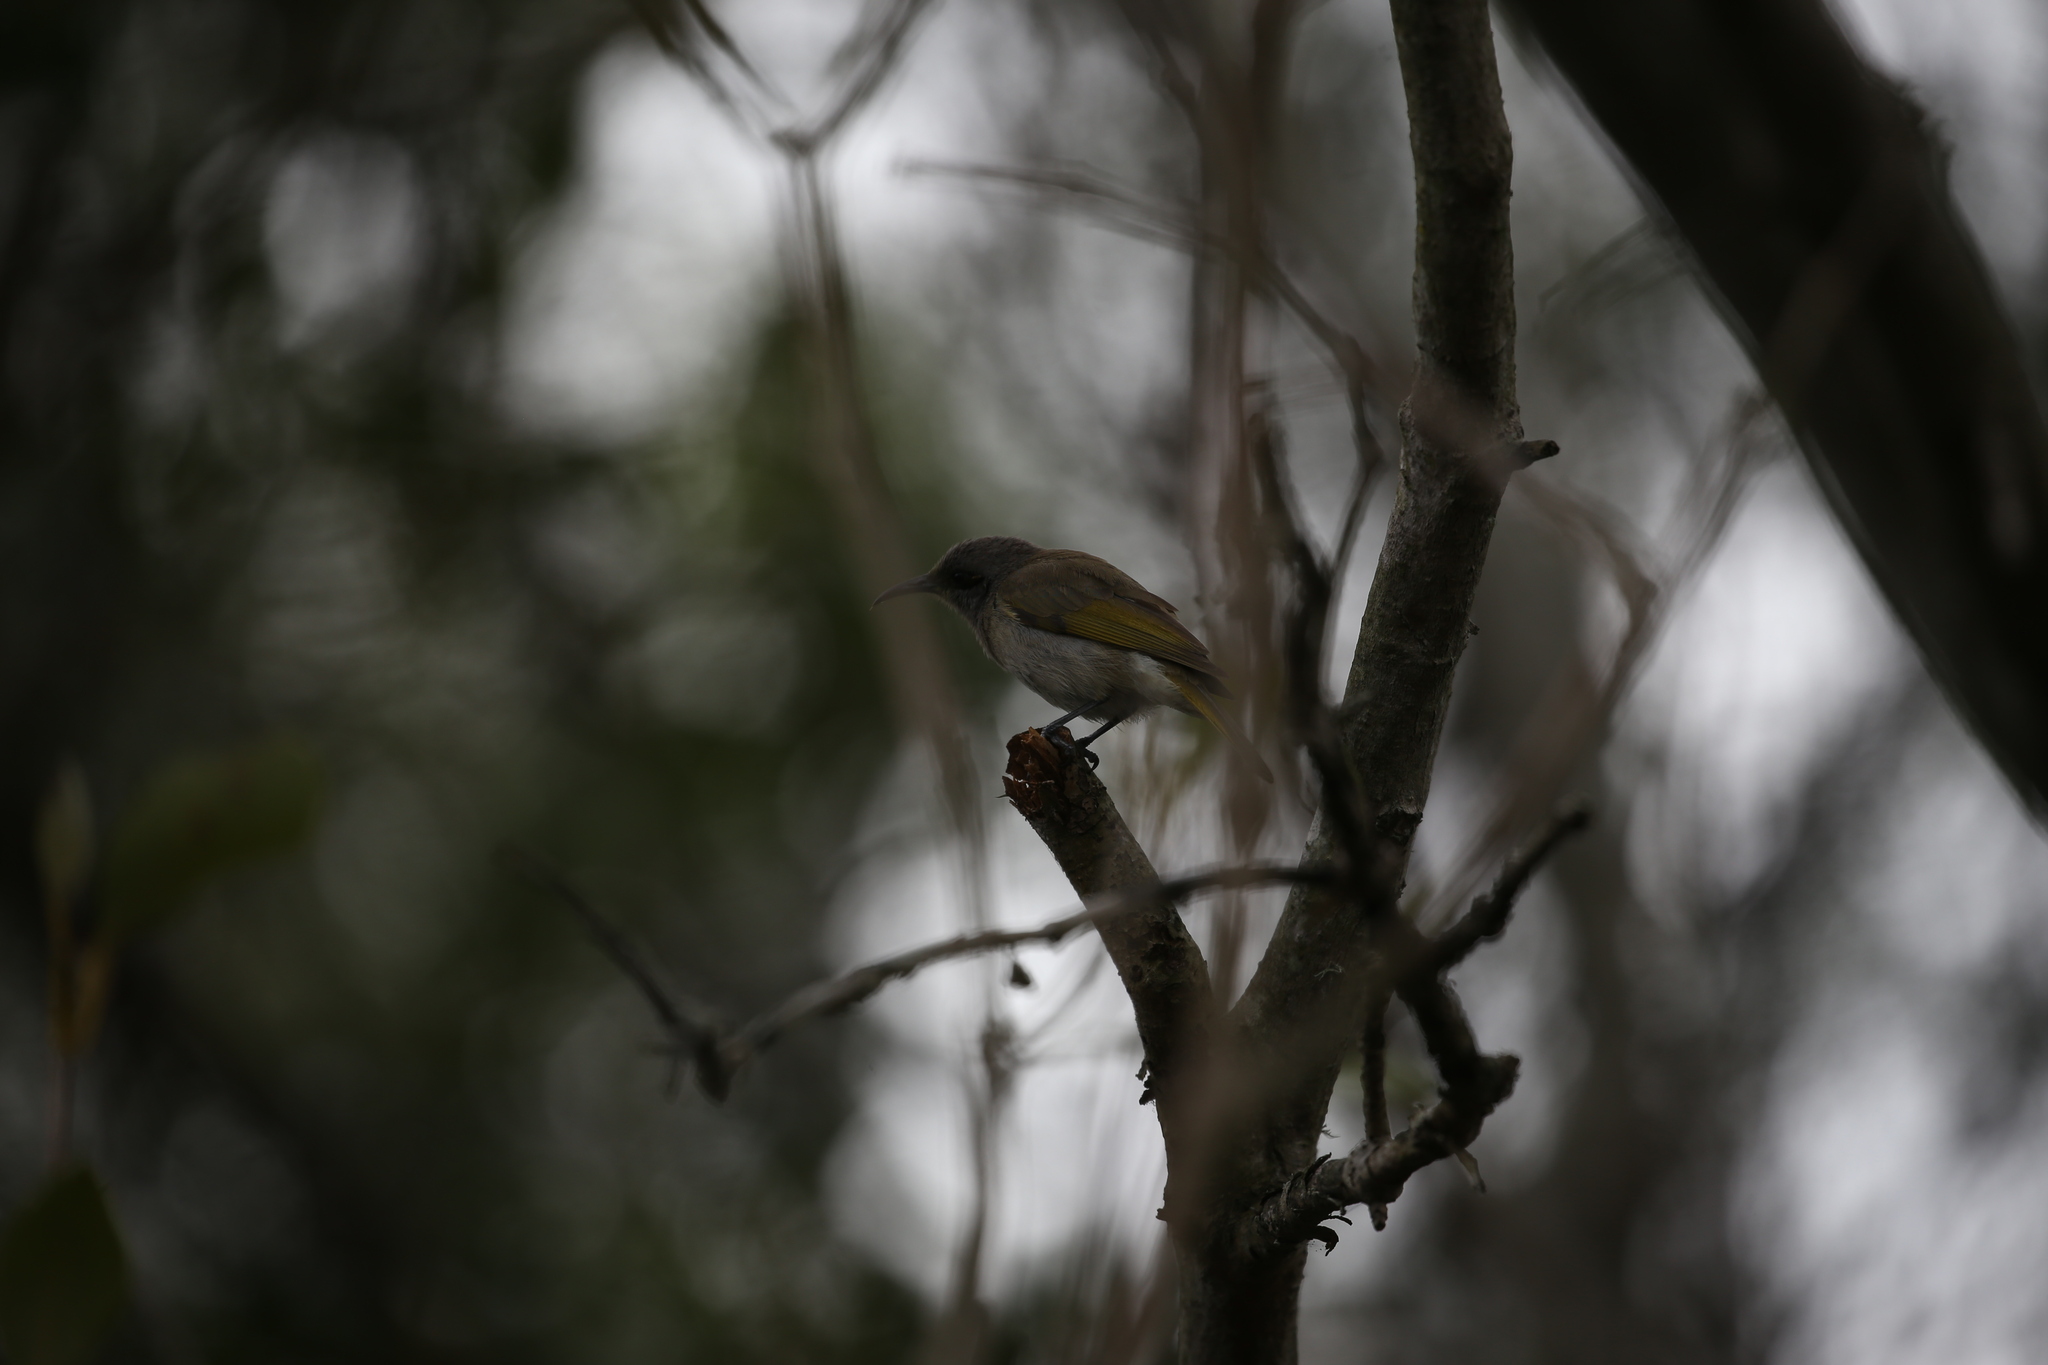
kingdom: Animalia
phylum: Chordata
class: Aves
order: Passeriformes
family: Meliphagidae
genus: Lichmera
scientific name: Lichmera indistincta
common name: Brown honeyeater
